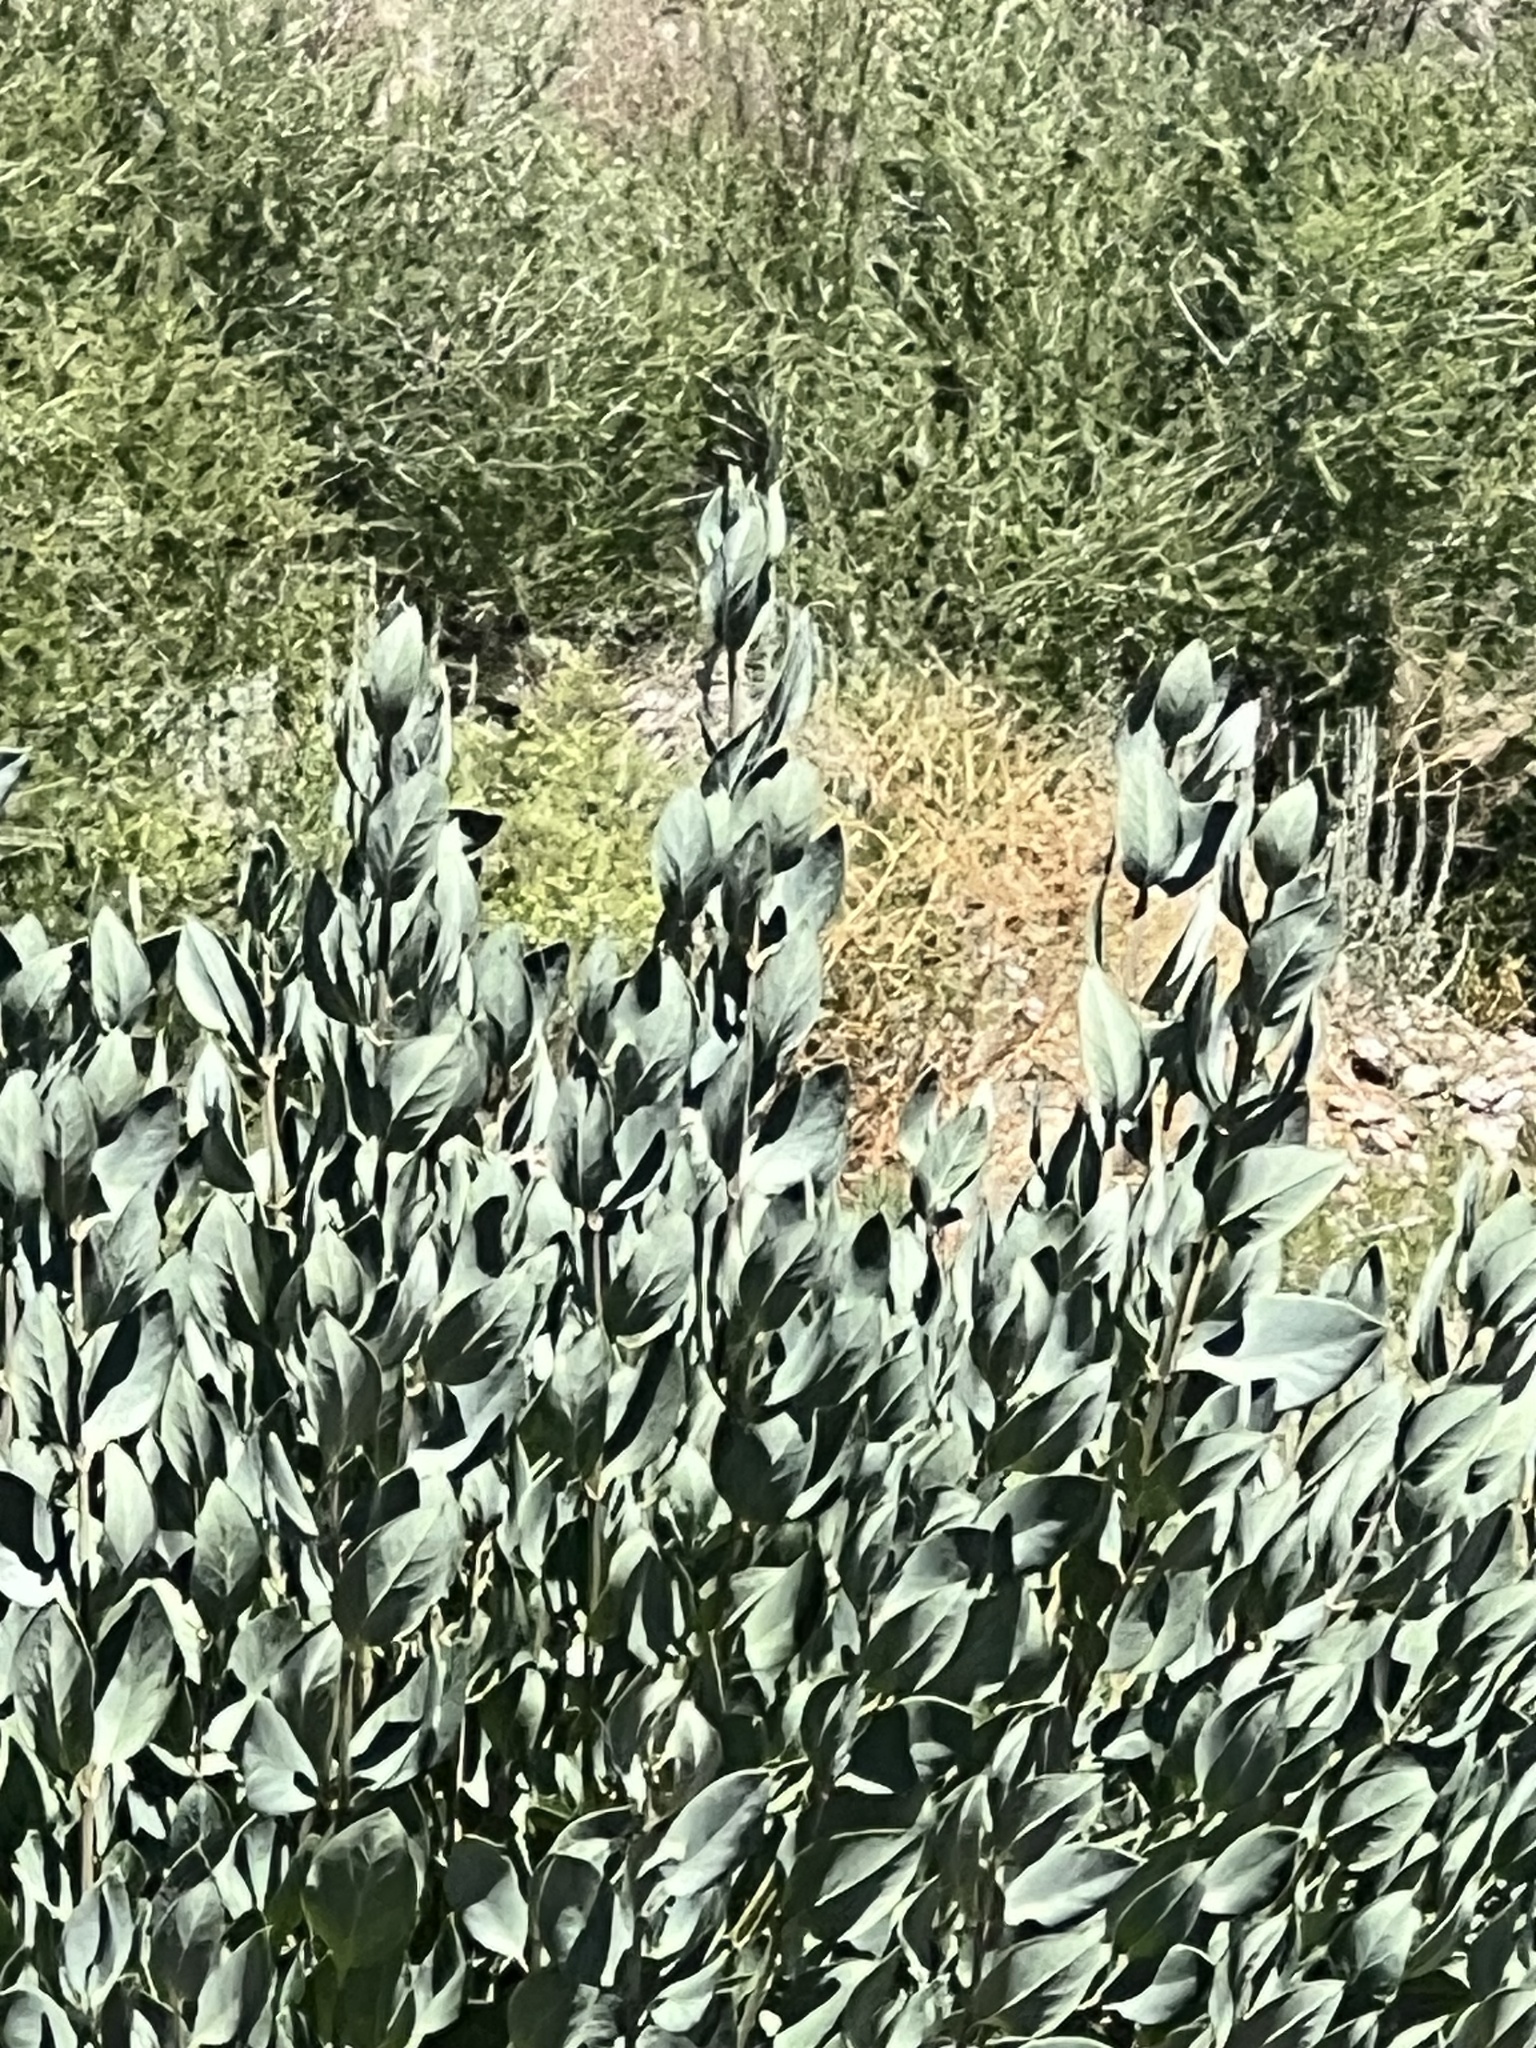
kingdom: Plantae
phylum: Tracheophyta
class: Magnoliopsida
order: Garryales
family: Garryaceae
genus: Garrya
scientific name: Garrya flavescens
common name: Ashy silk-tassel
